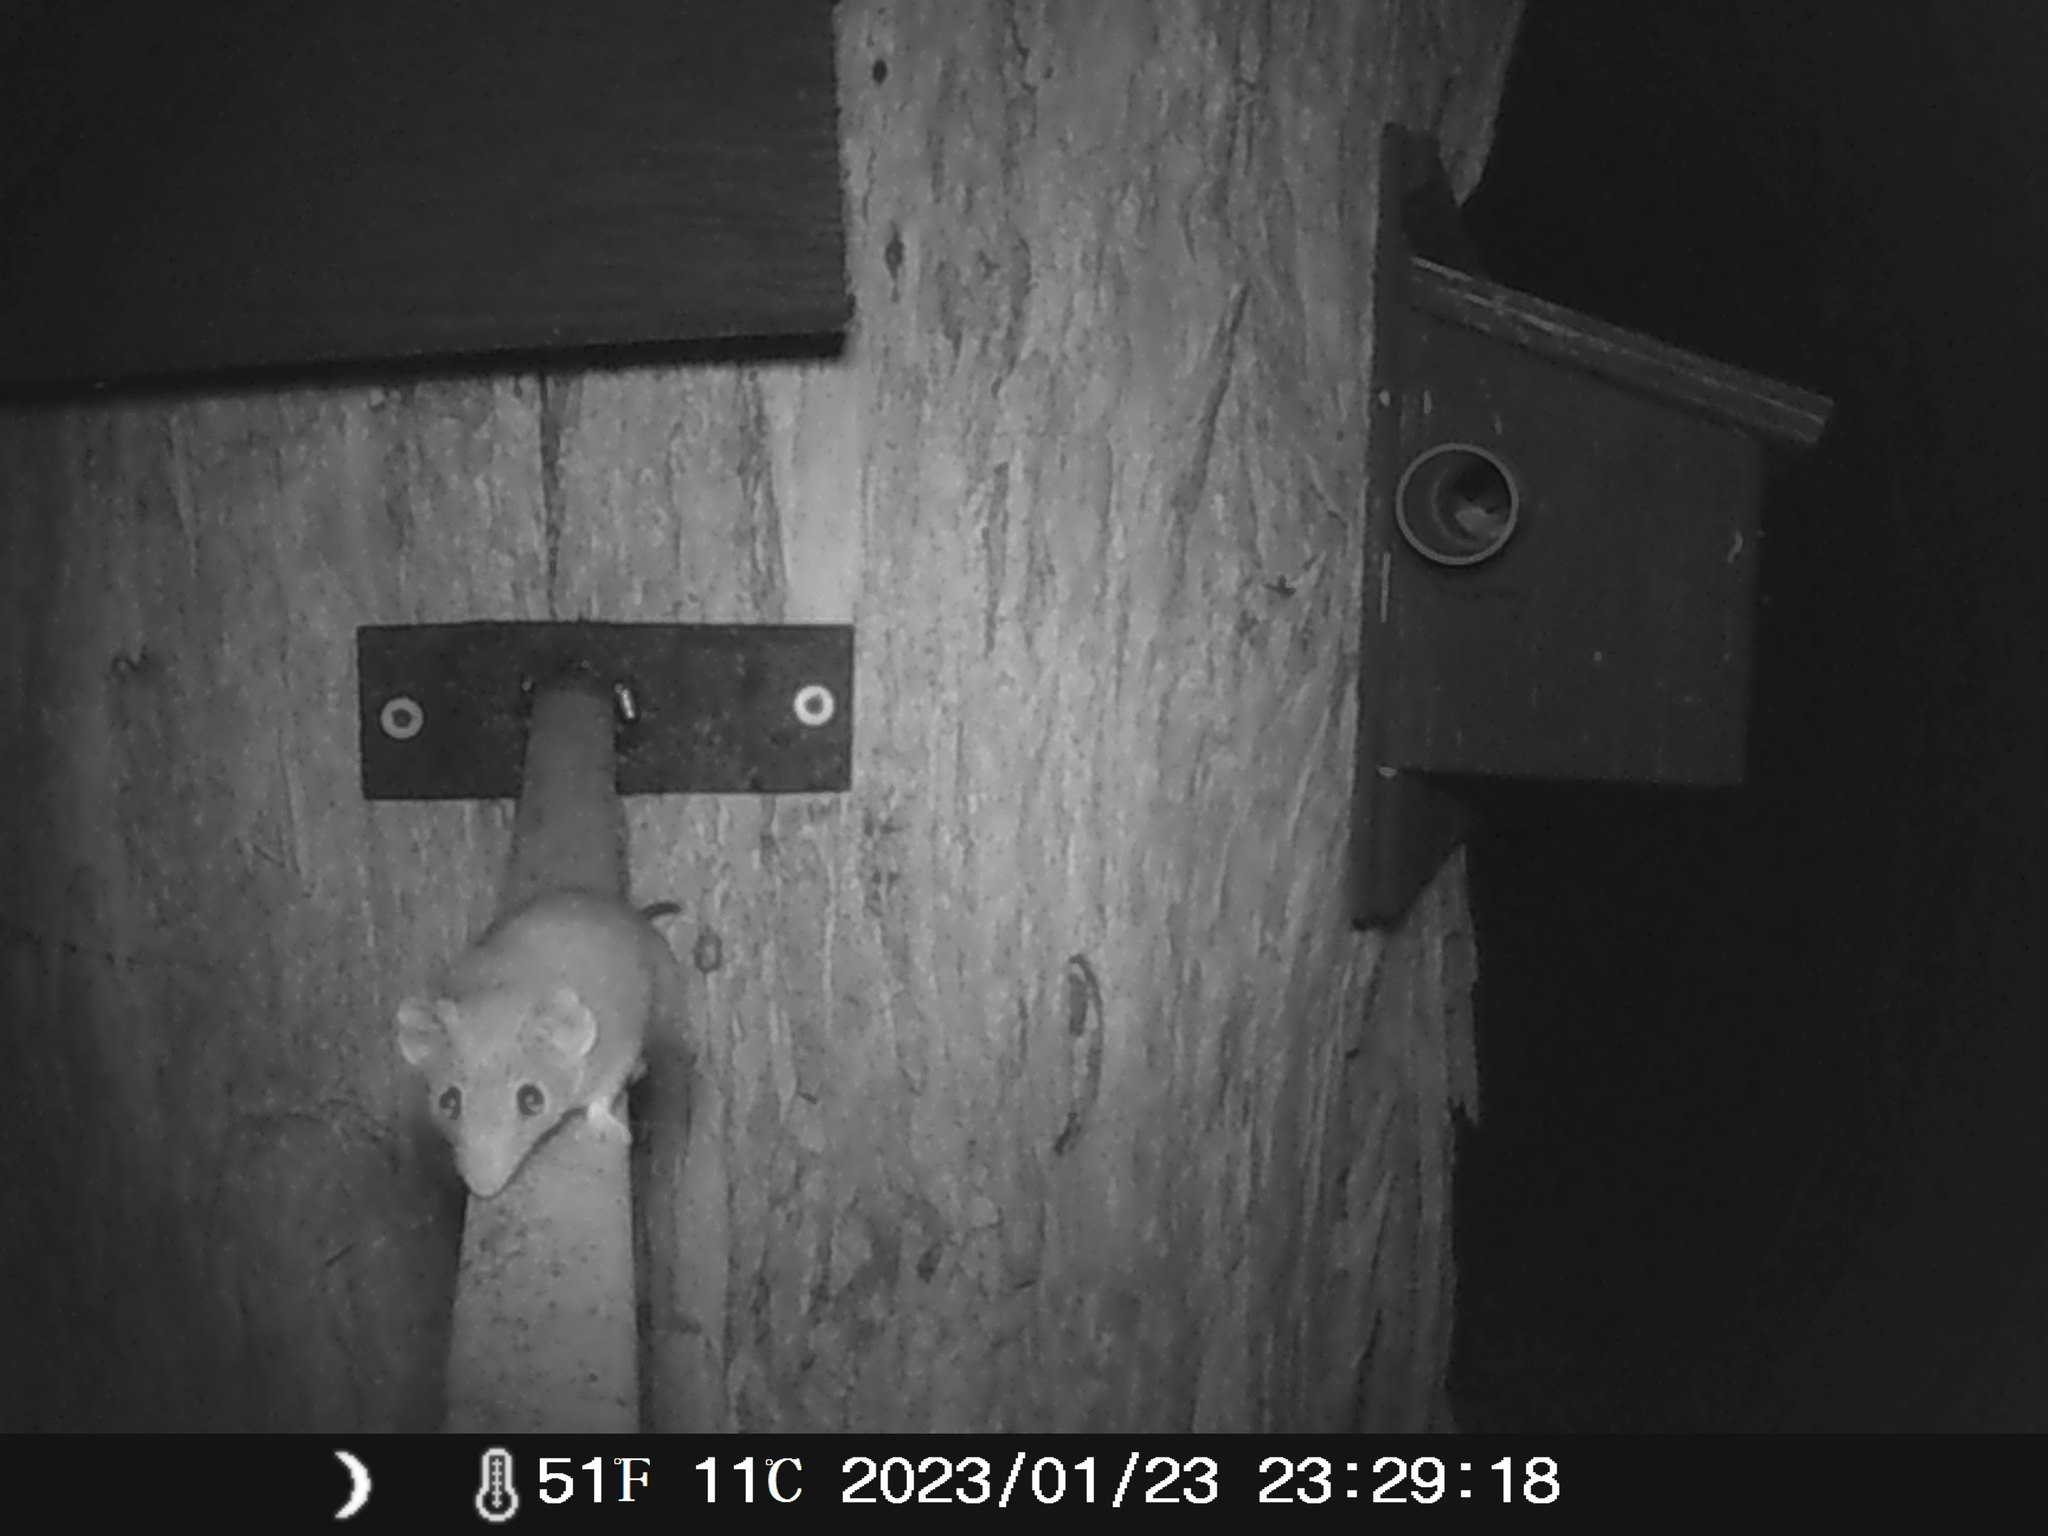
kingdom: Animalia
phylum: Chordata
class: Mammalia
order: Dasyuromorphia
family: Dasyuridae
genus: Antechinus
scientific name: Antechinus agilis
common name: Agile antechinus
